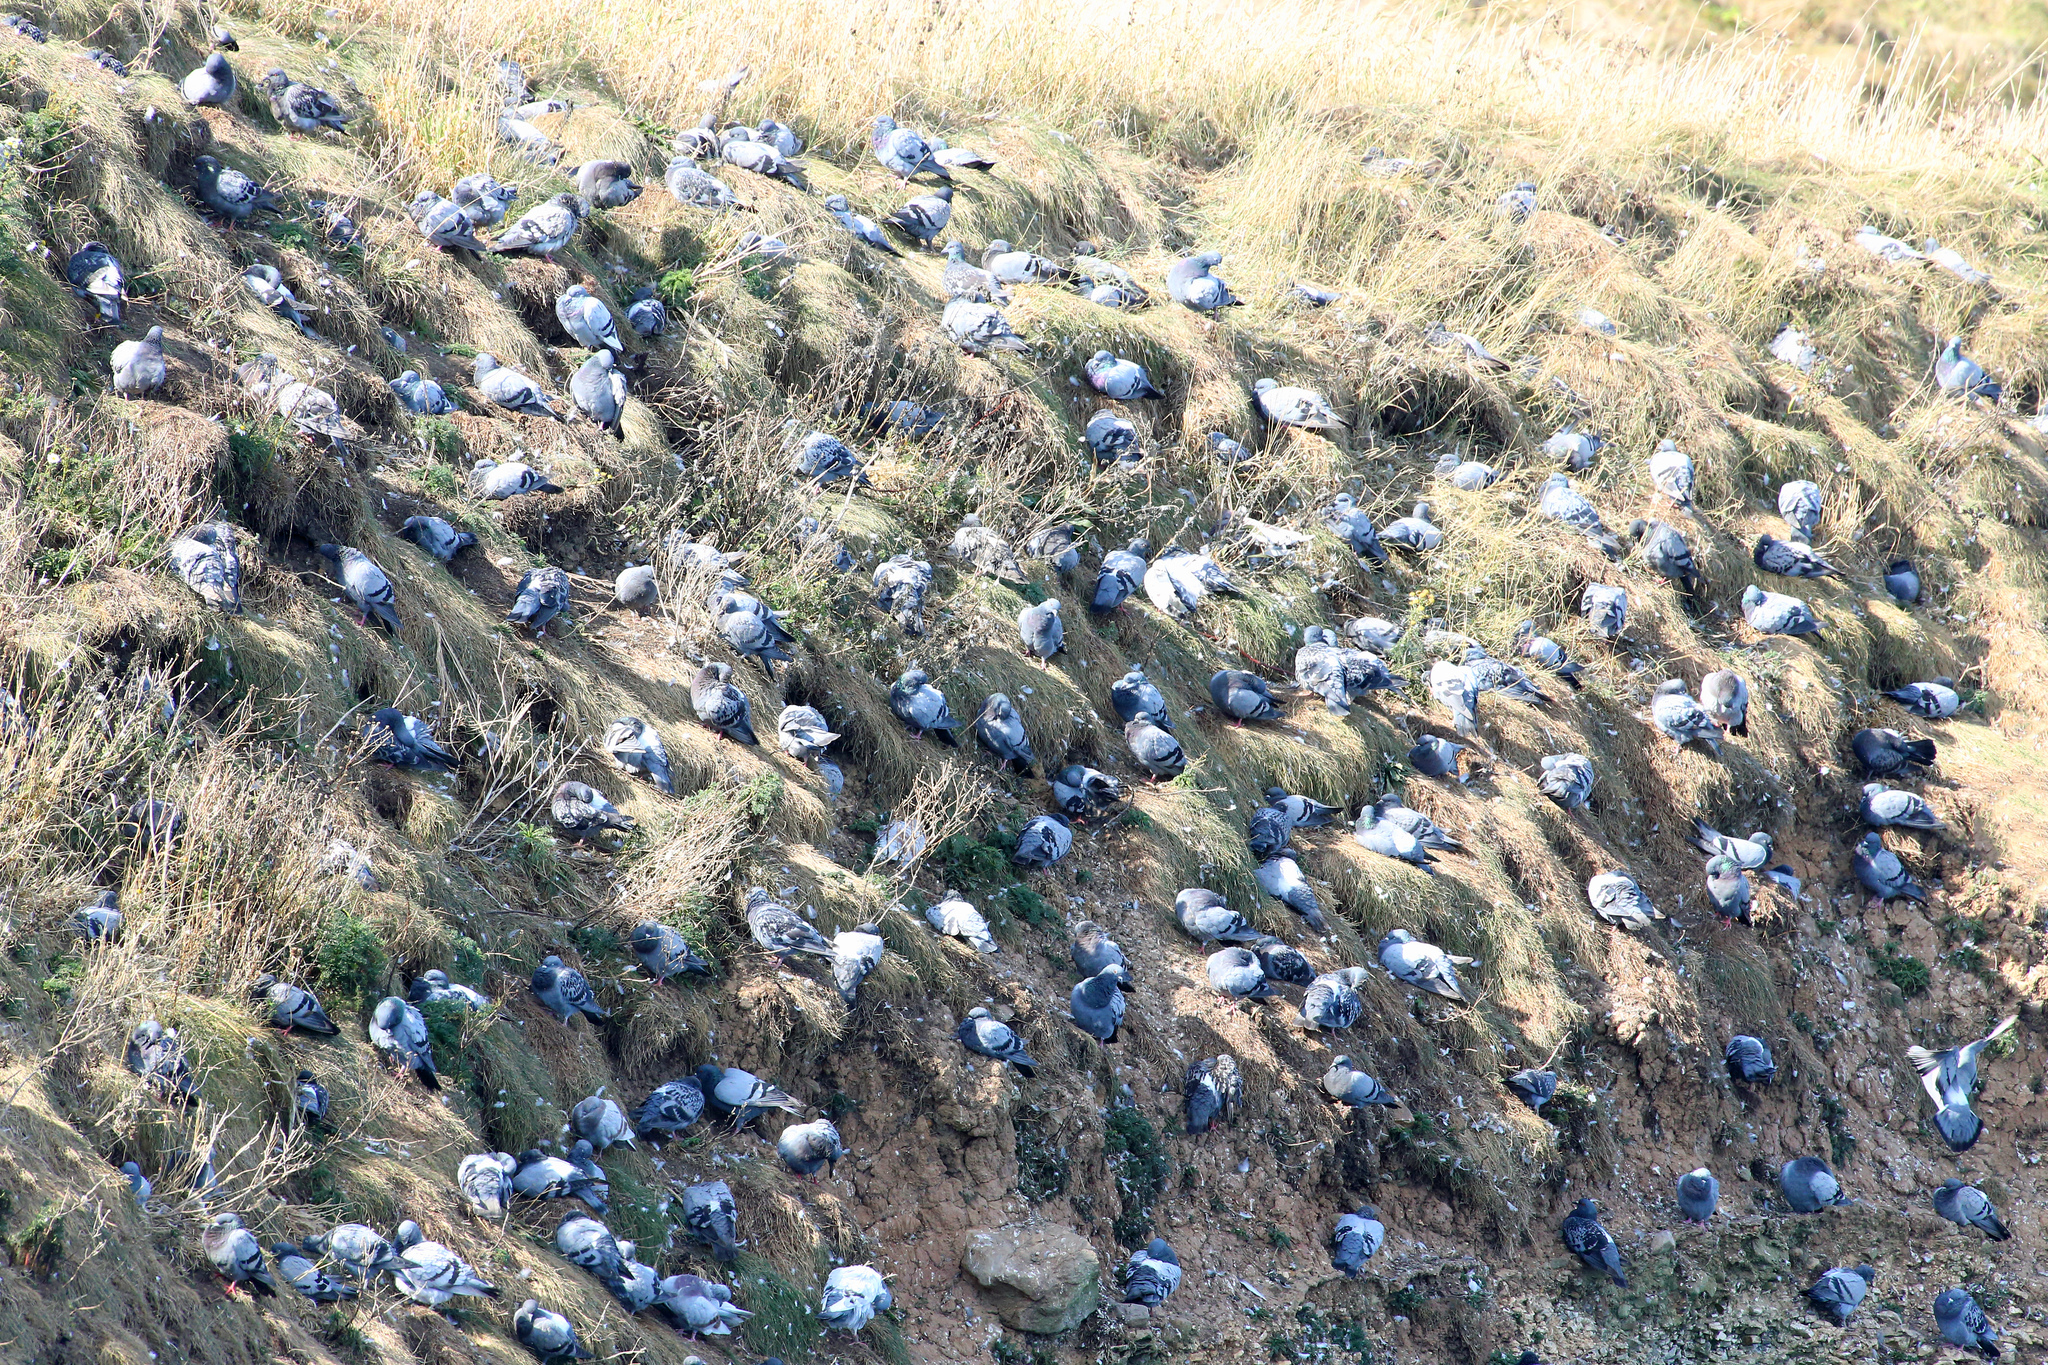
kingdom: Animalia
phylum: Chordata
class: Aves
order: Columbiformes
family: Columbidae
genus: Columba
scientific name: Columba livia
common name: Rock pigeon
